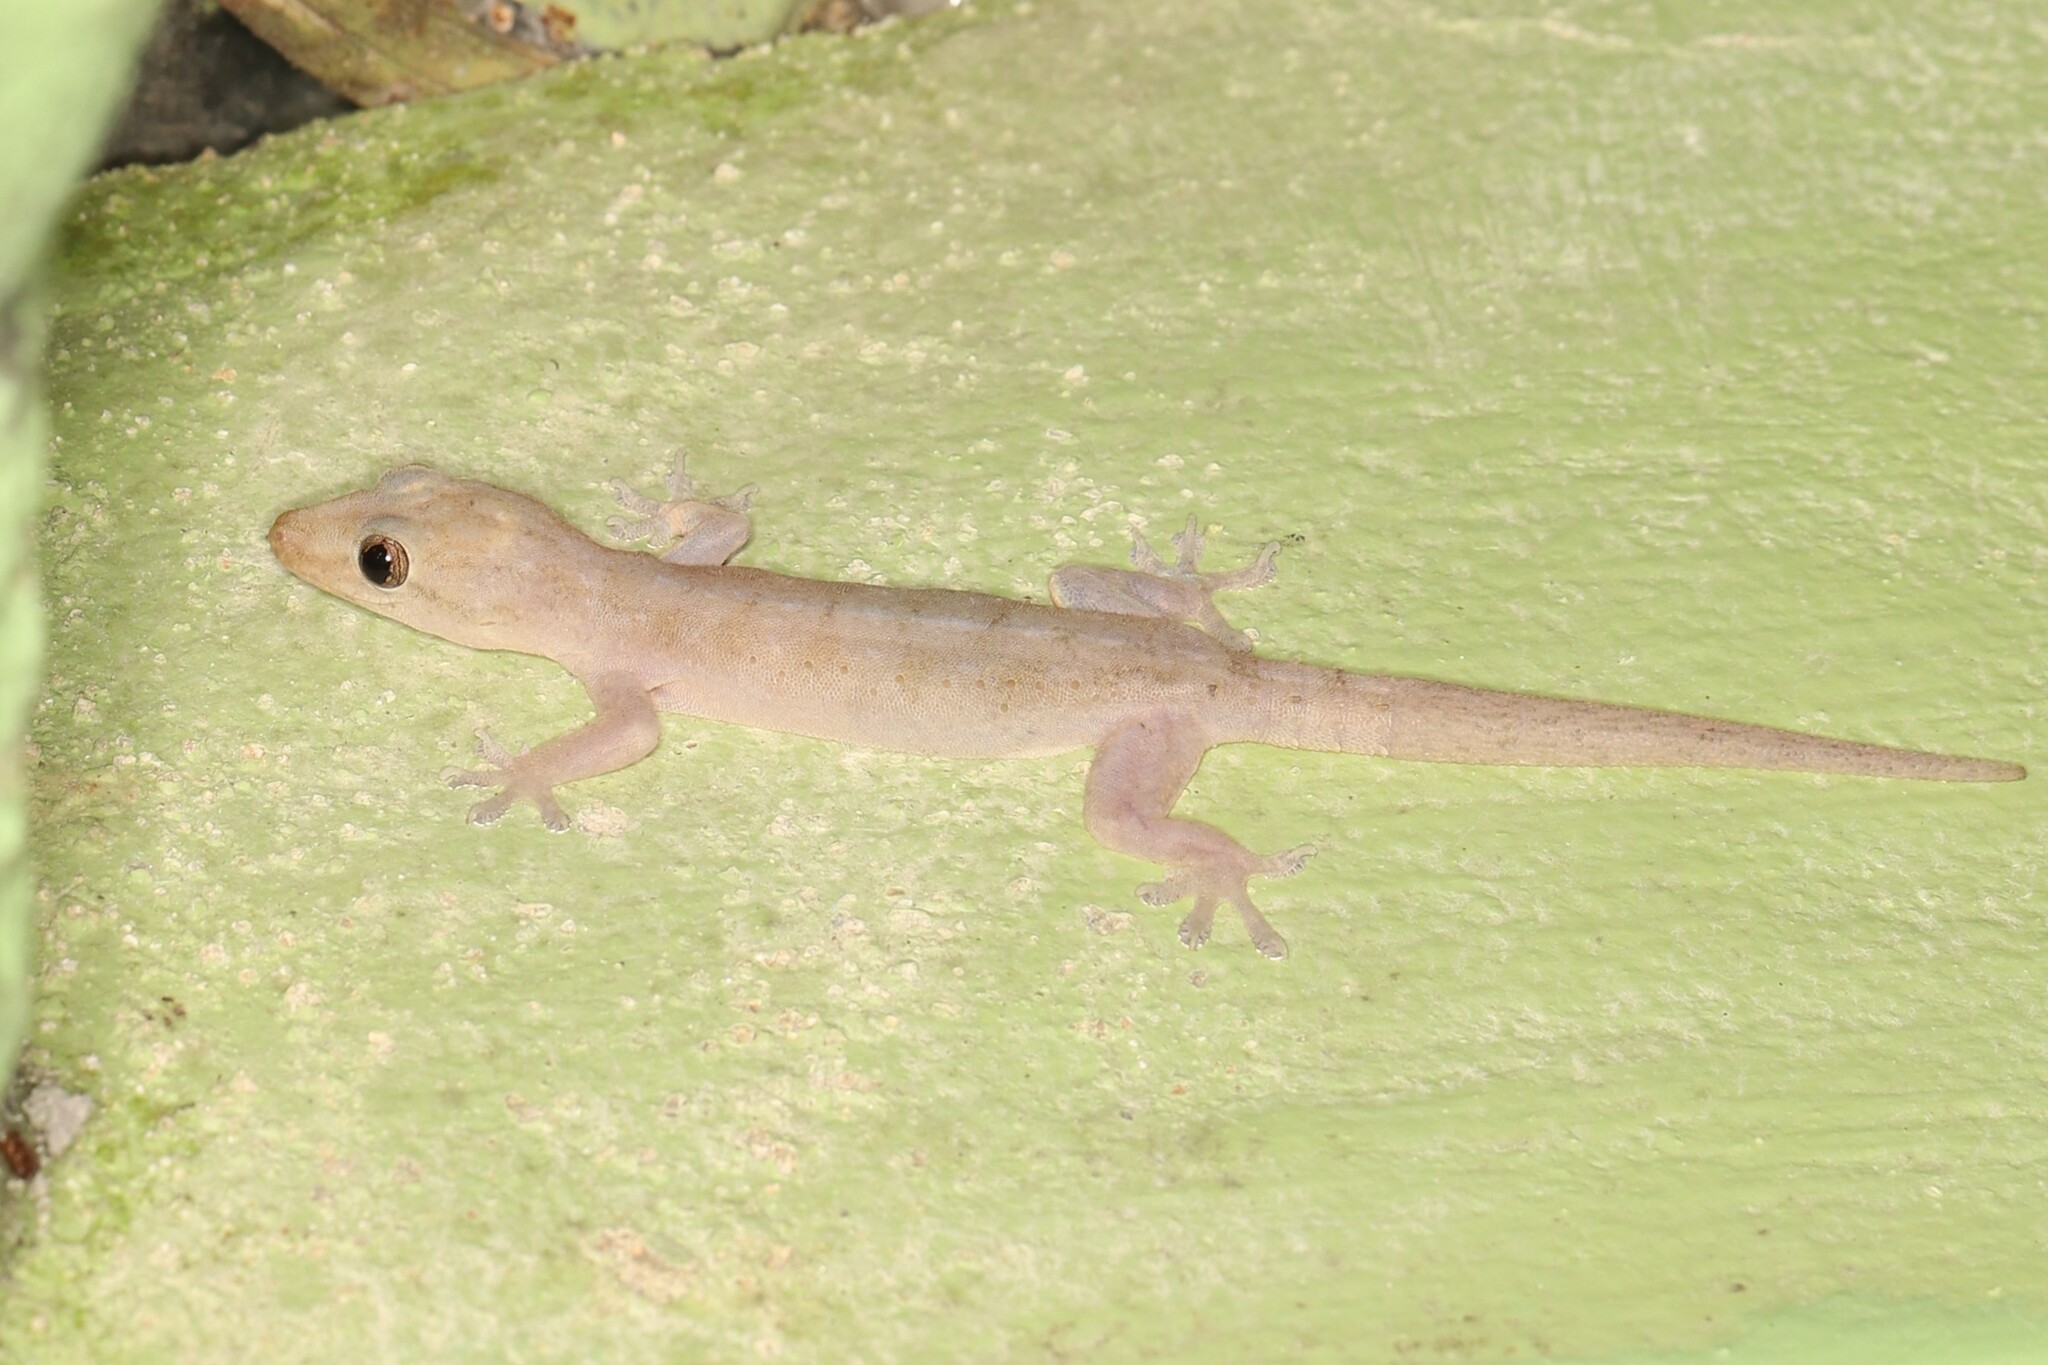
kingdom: Animalia
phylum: Chordata
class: Squamata
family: Gekkonidae
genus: Hemidactylus
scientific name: Hemidactylus frenatus
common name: Common house gecko
